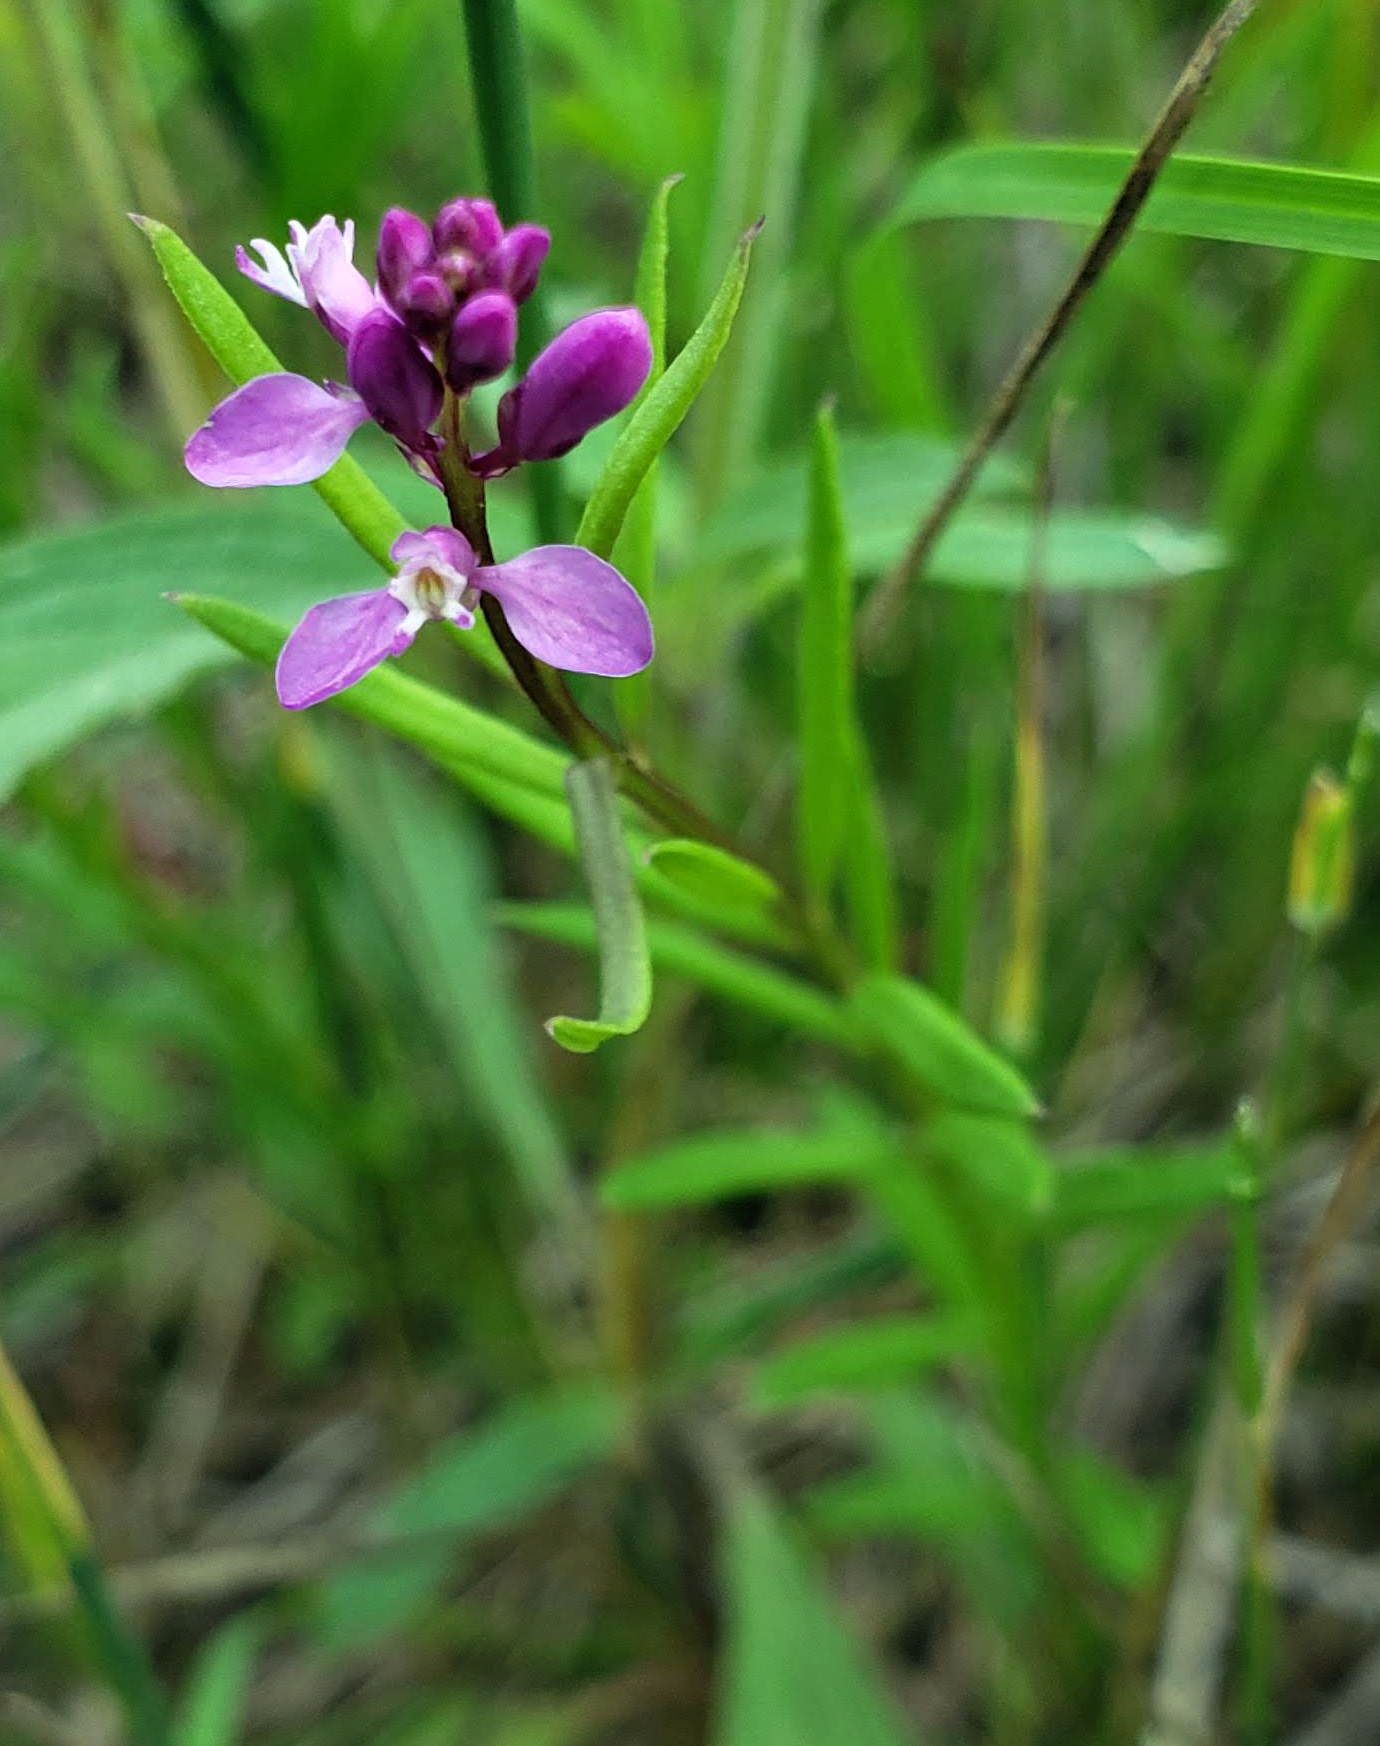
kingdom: Plantae
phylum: Tracheophyta
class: Magnoliopsida
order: Fabales
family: Polygalaceae
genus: Polygala
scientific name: Polygala polygama
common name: Bitter milkwort
